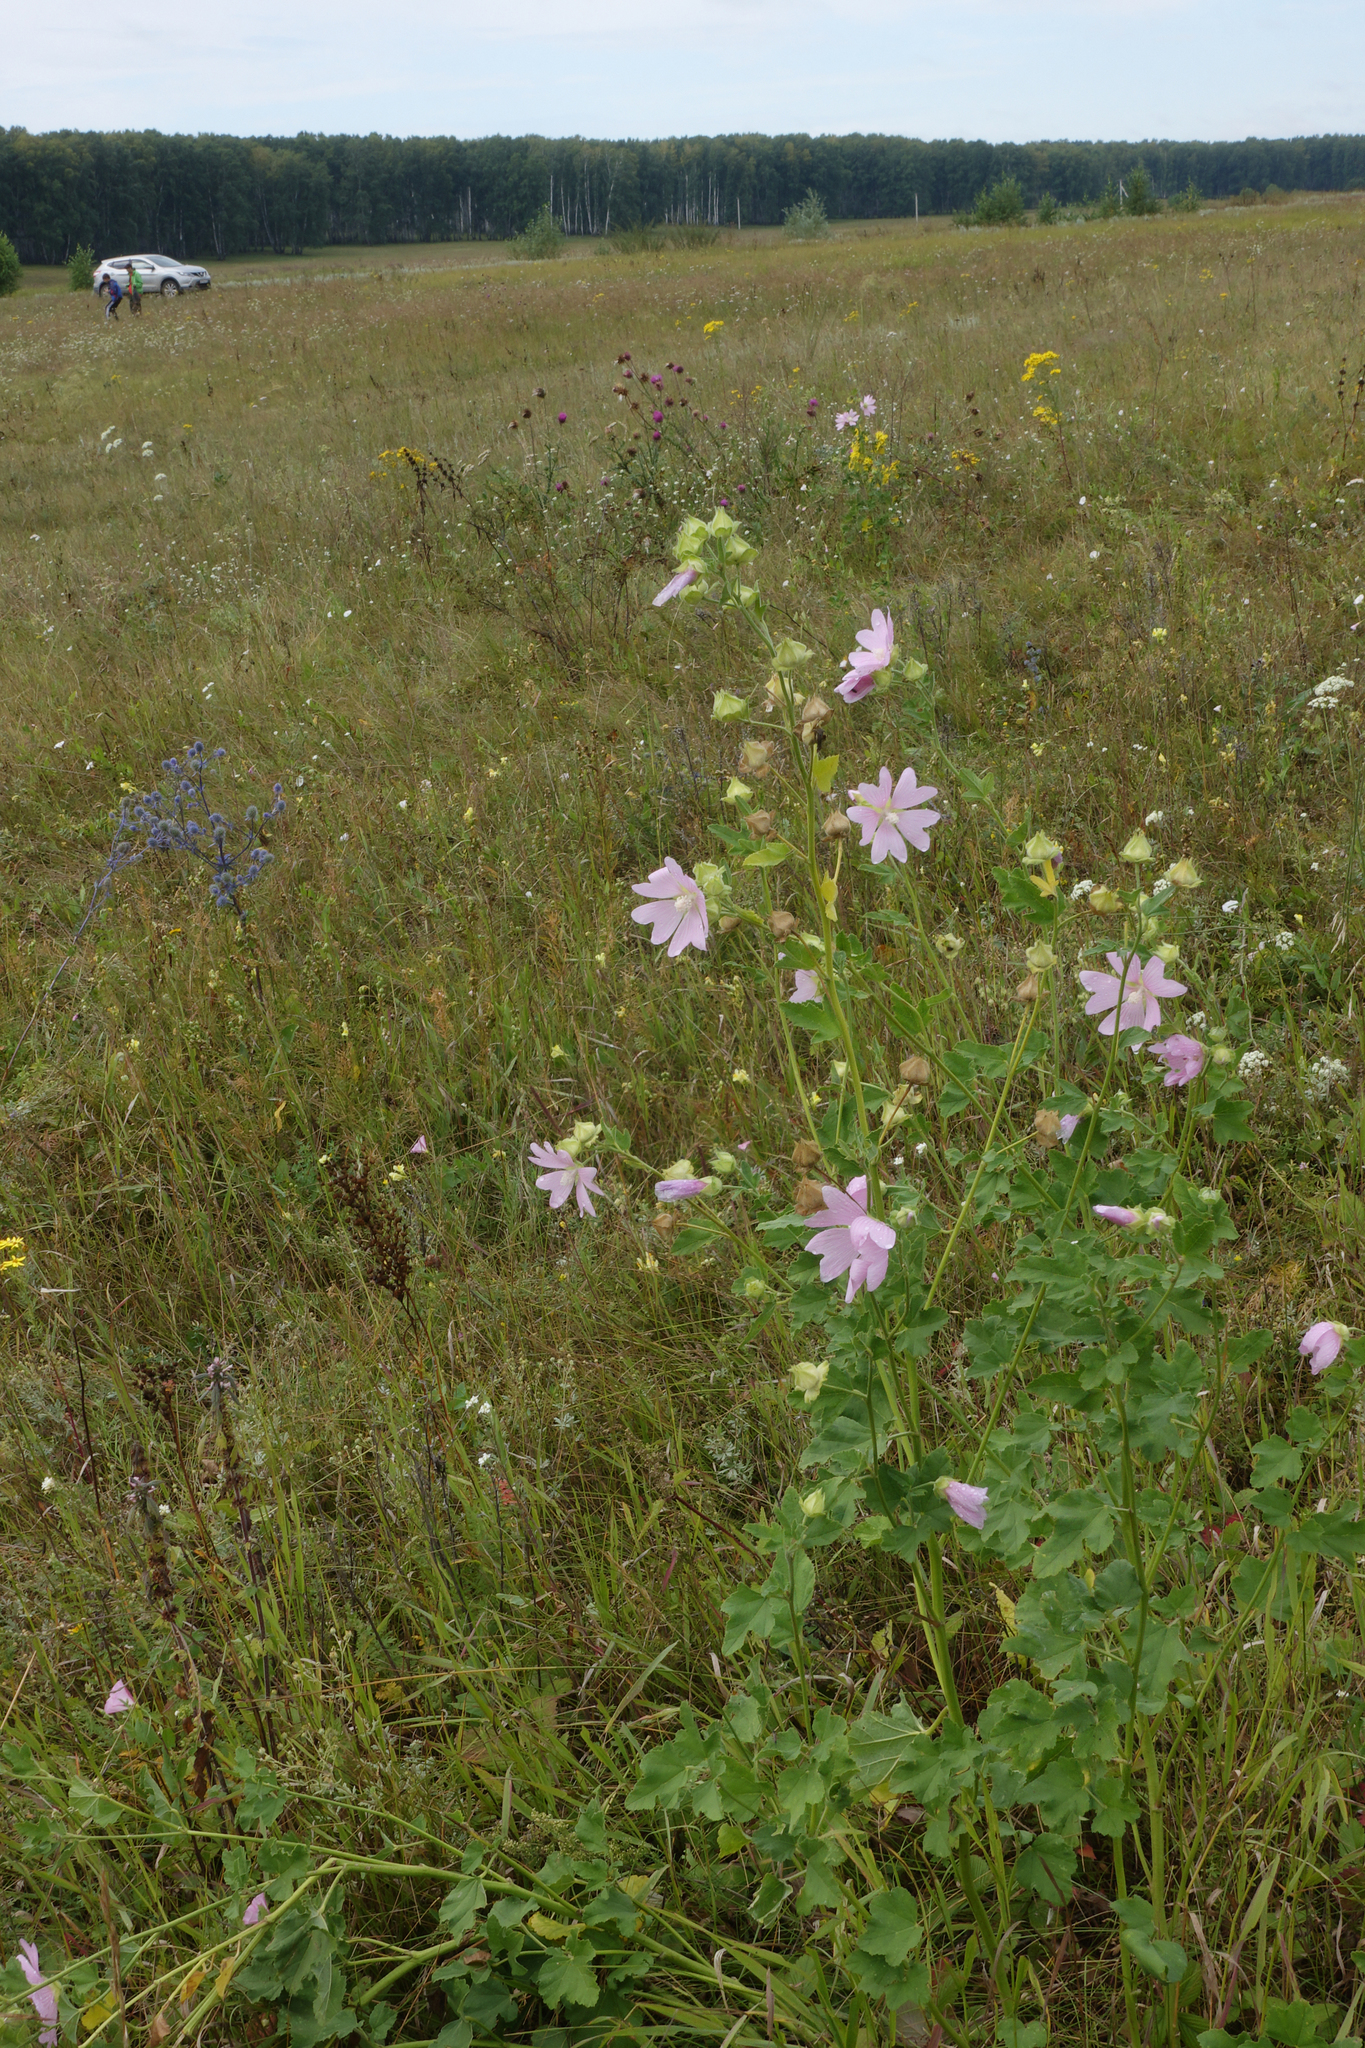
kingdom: Plantae
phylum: Tracheophyta
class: Magnoliopsida
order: Malvales
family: Malvaceae
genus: Malva
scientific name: Malva thuringiaca
